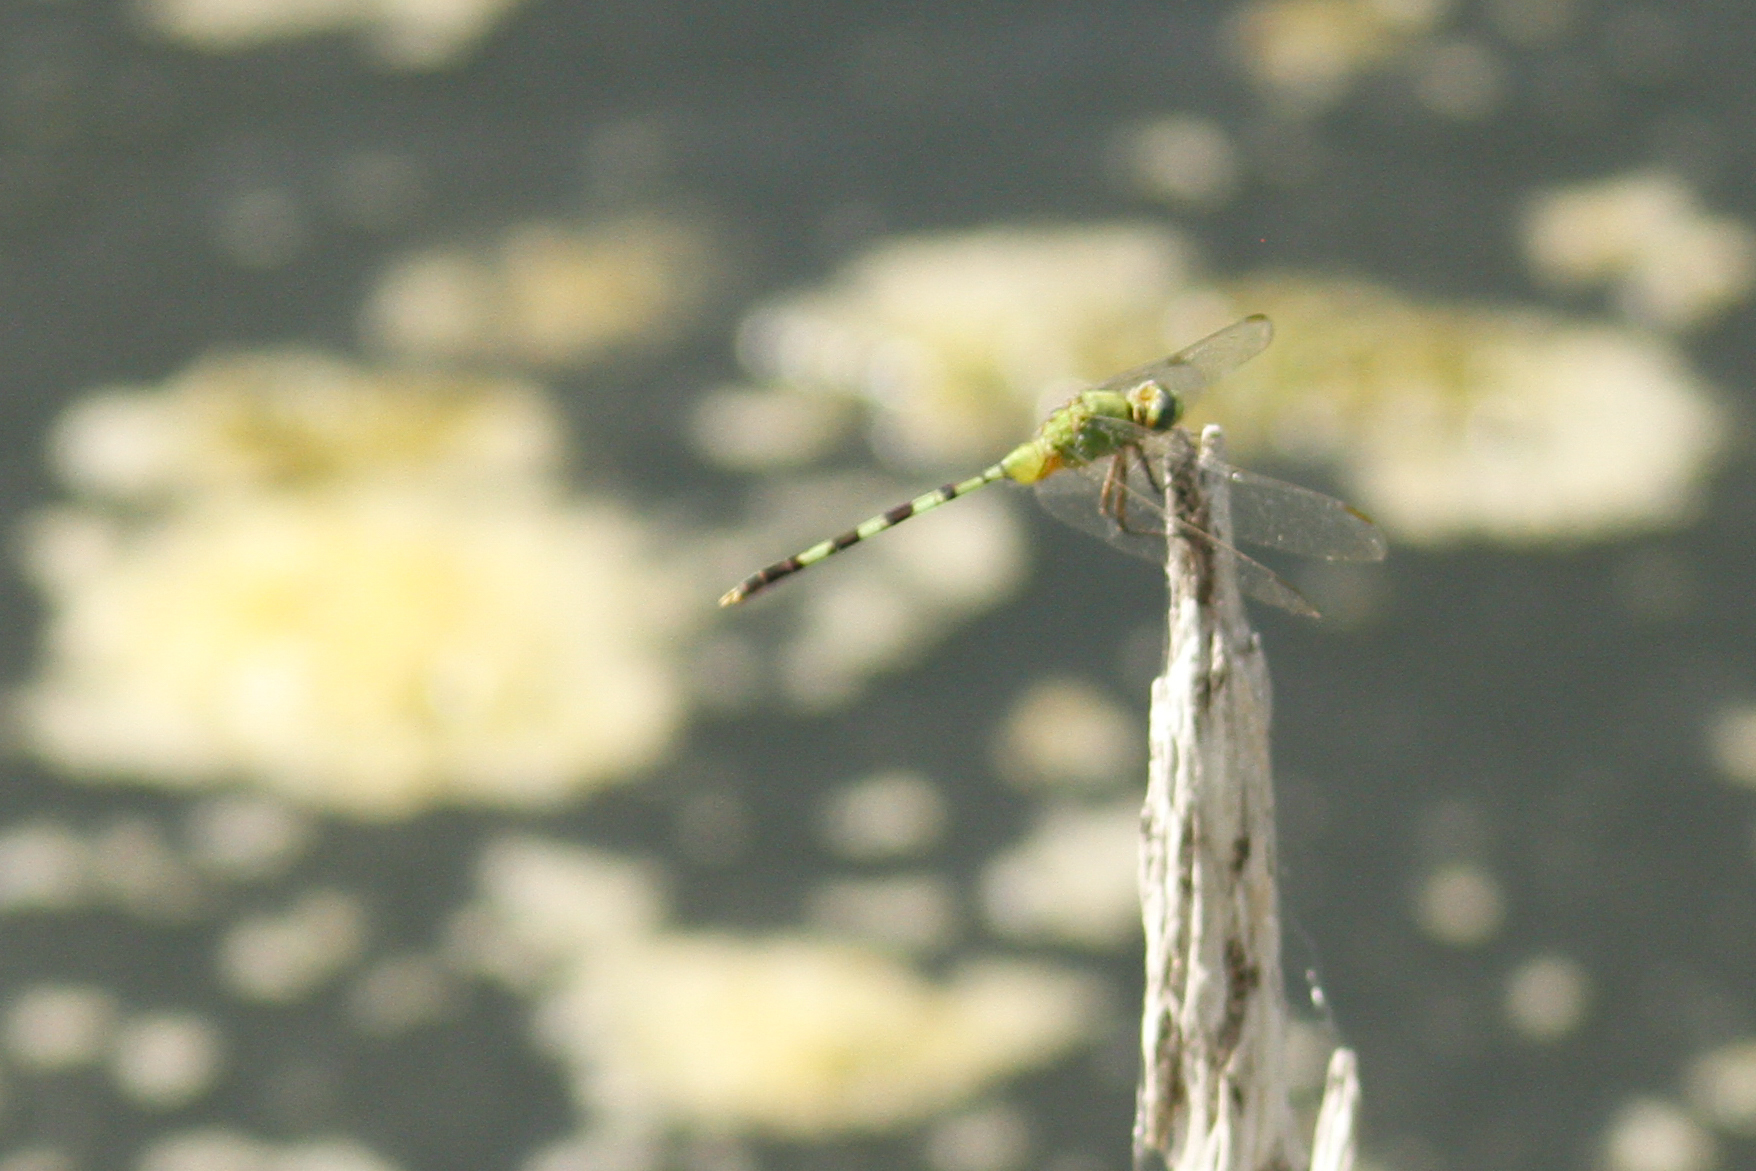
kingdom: Animalia
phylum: Arthropoda
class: Insecta
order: Odonata
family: Libellulidae
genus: Erythemis
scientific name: Erythemis vesiculosa
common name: Great pondhawk
